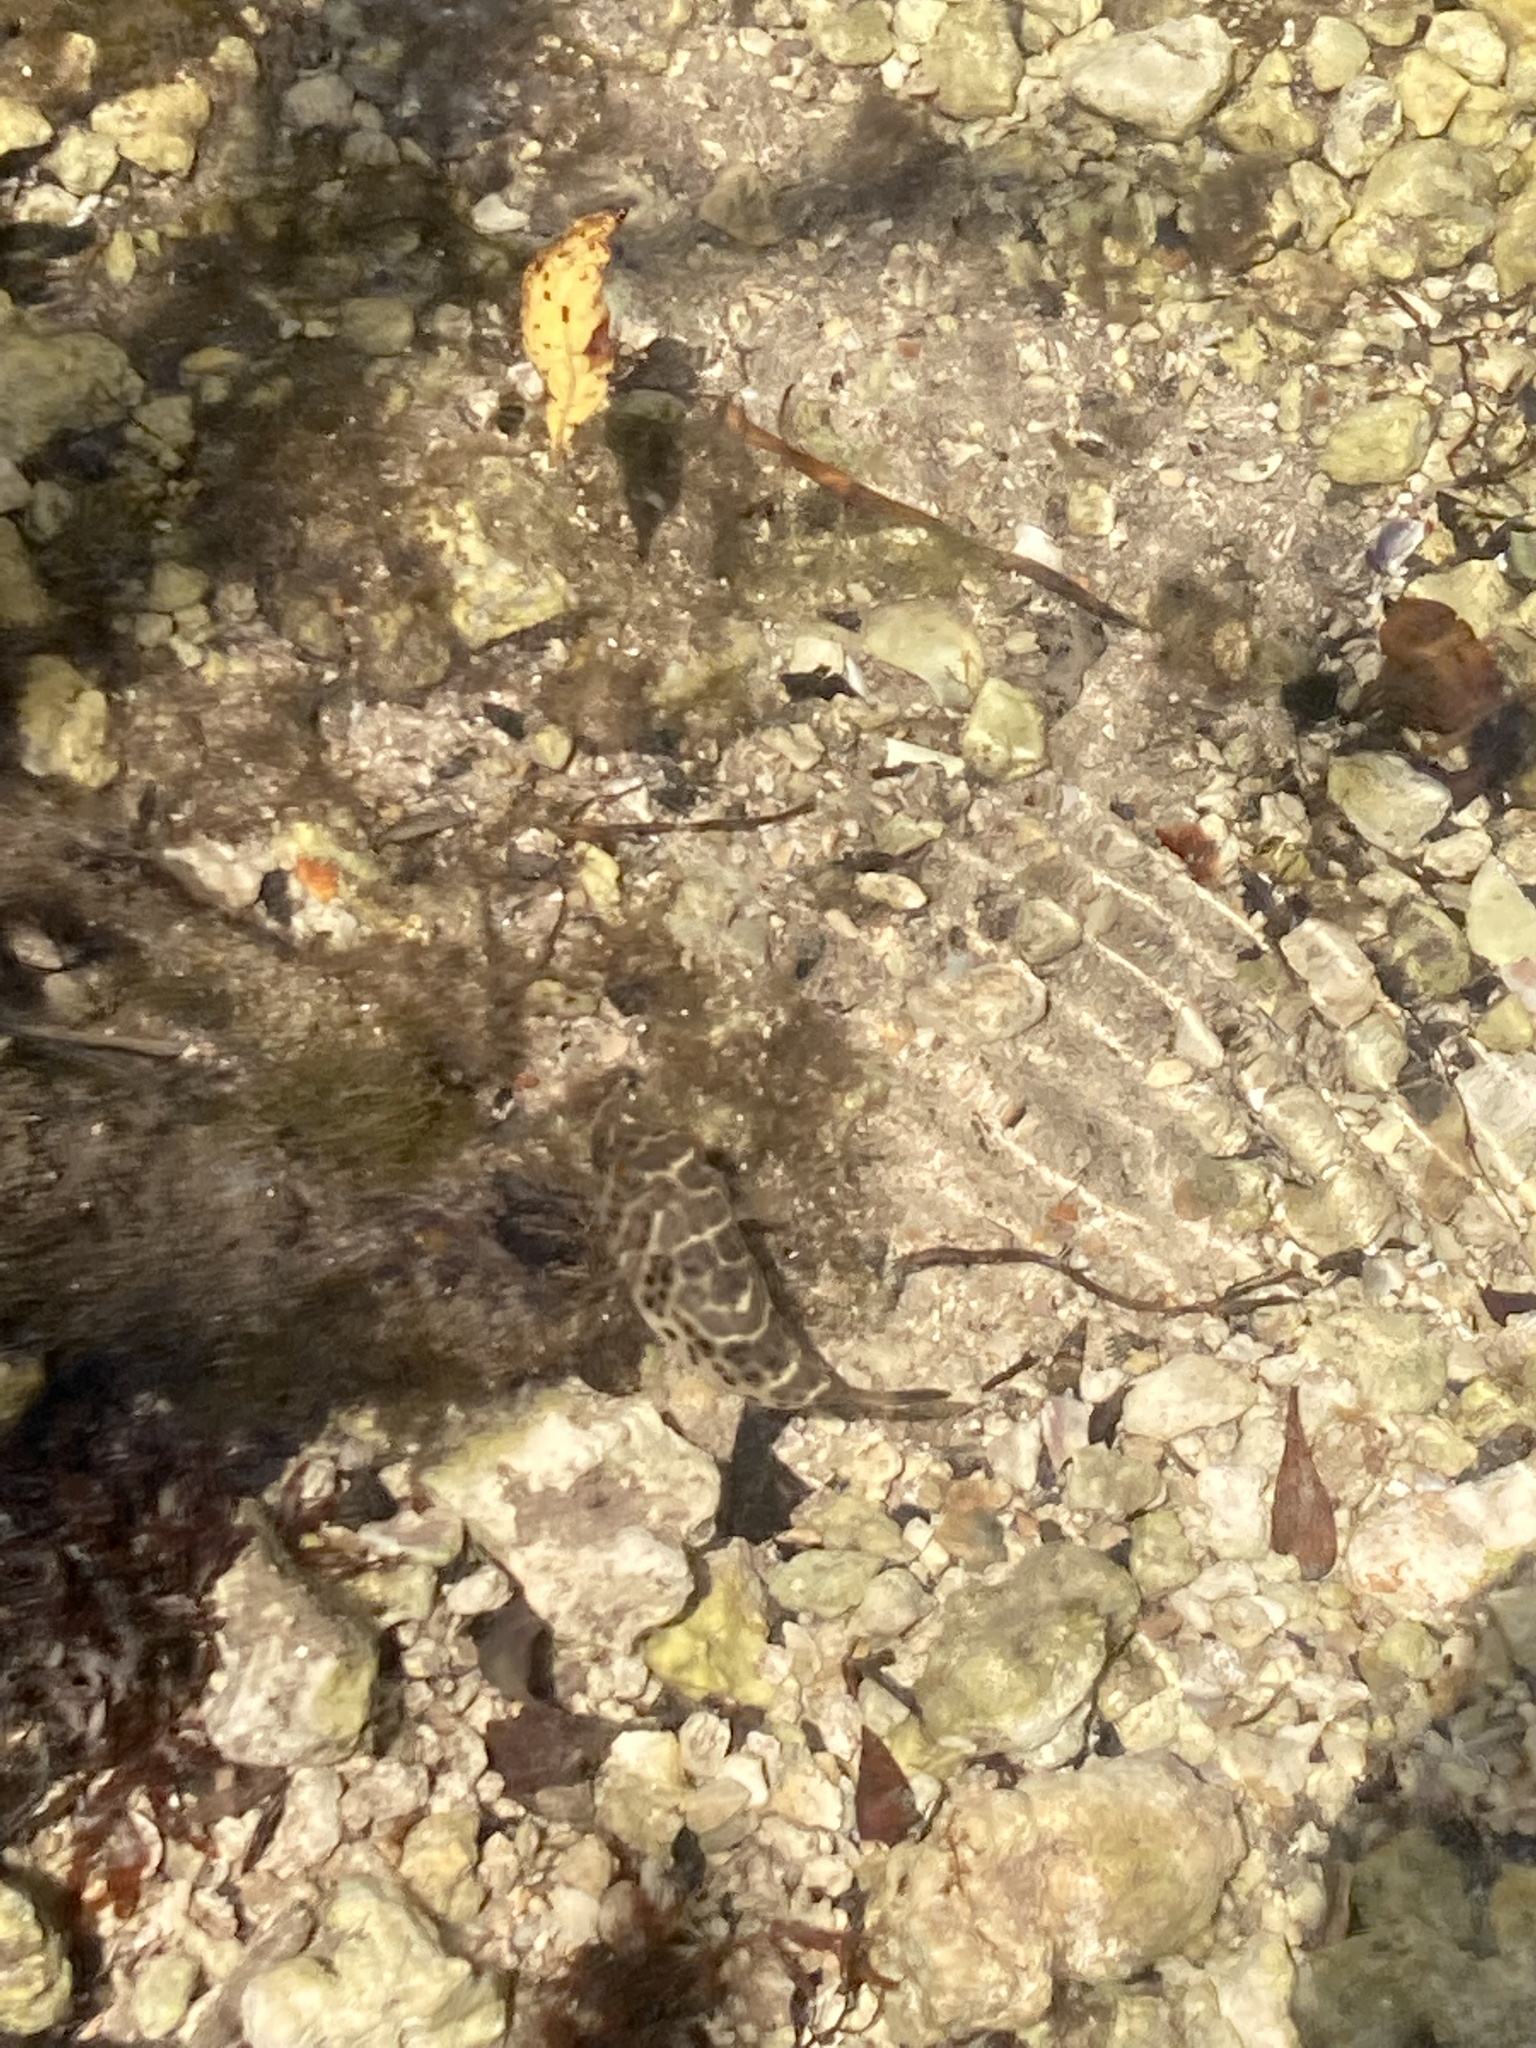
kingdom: Animalia
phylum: Chordata
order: Tetraodontiformes
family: Tetraodontidae
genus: Sphoeroides
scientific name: Sphoeroides testudineus
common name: Checkered puffer
